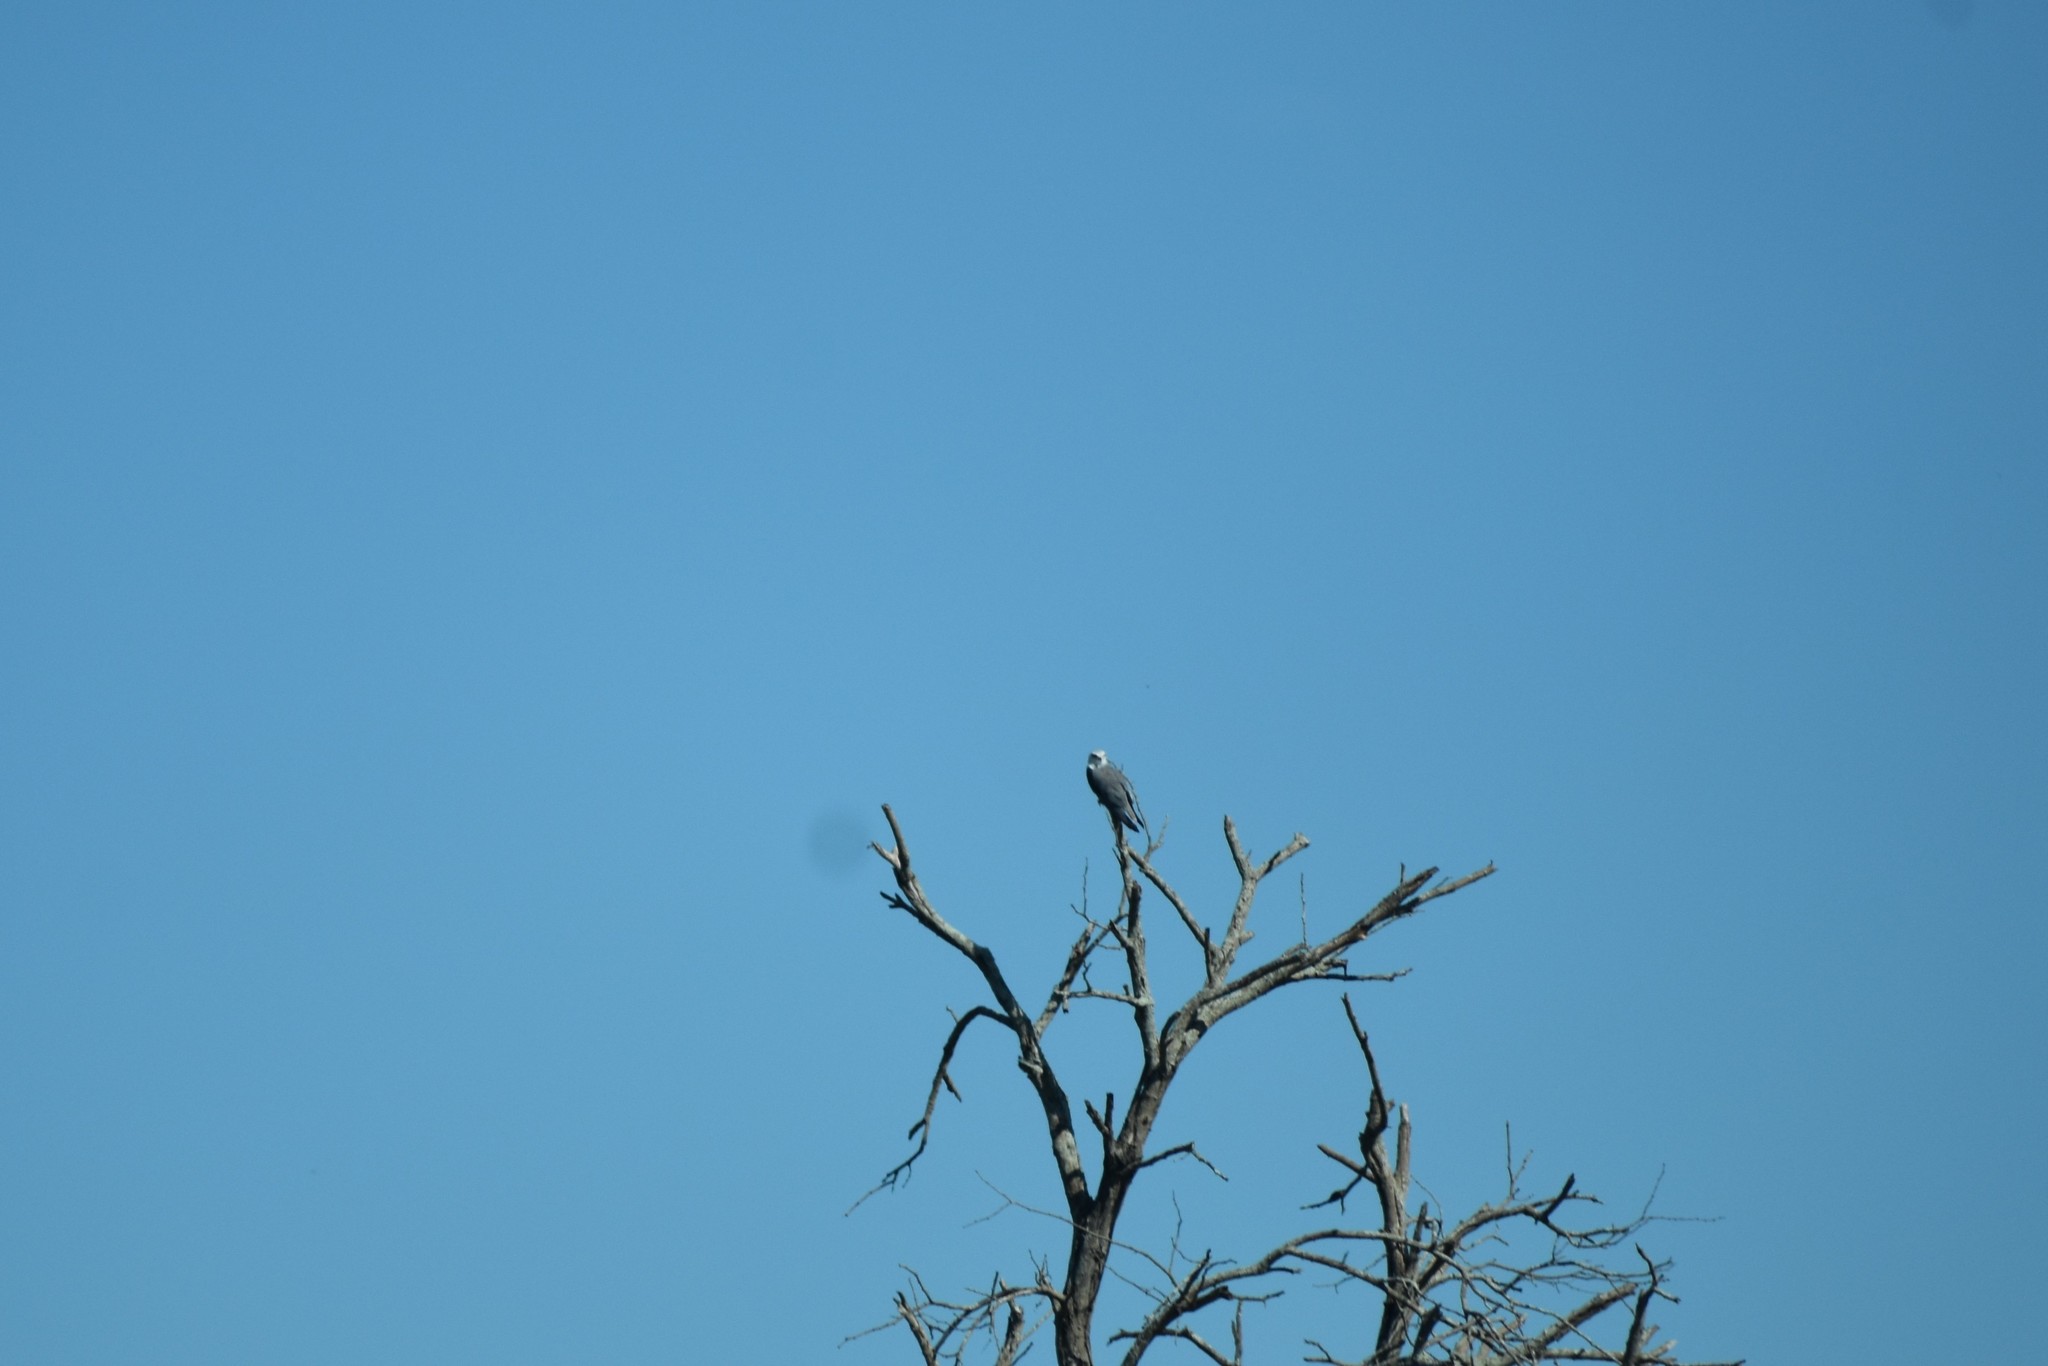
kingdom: Animalia
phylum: Chordata
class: Aves
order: Accipitriformes
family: Accipitridae
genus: Elanus
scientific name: Elanus caeruleus
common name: Black-winged kite
